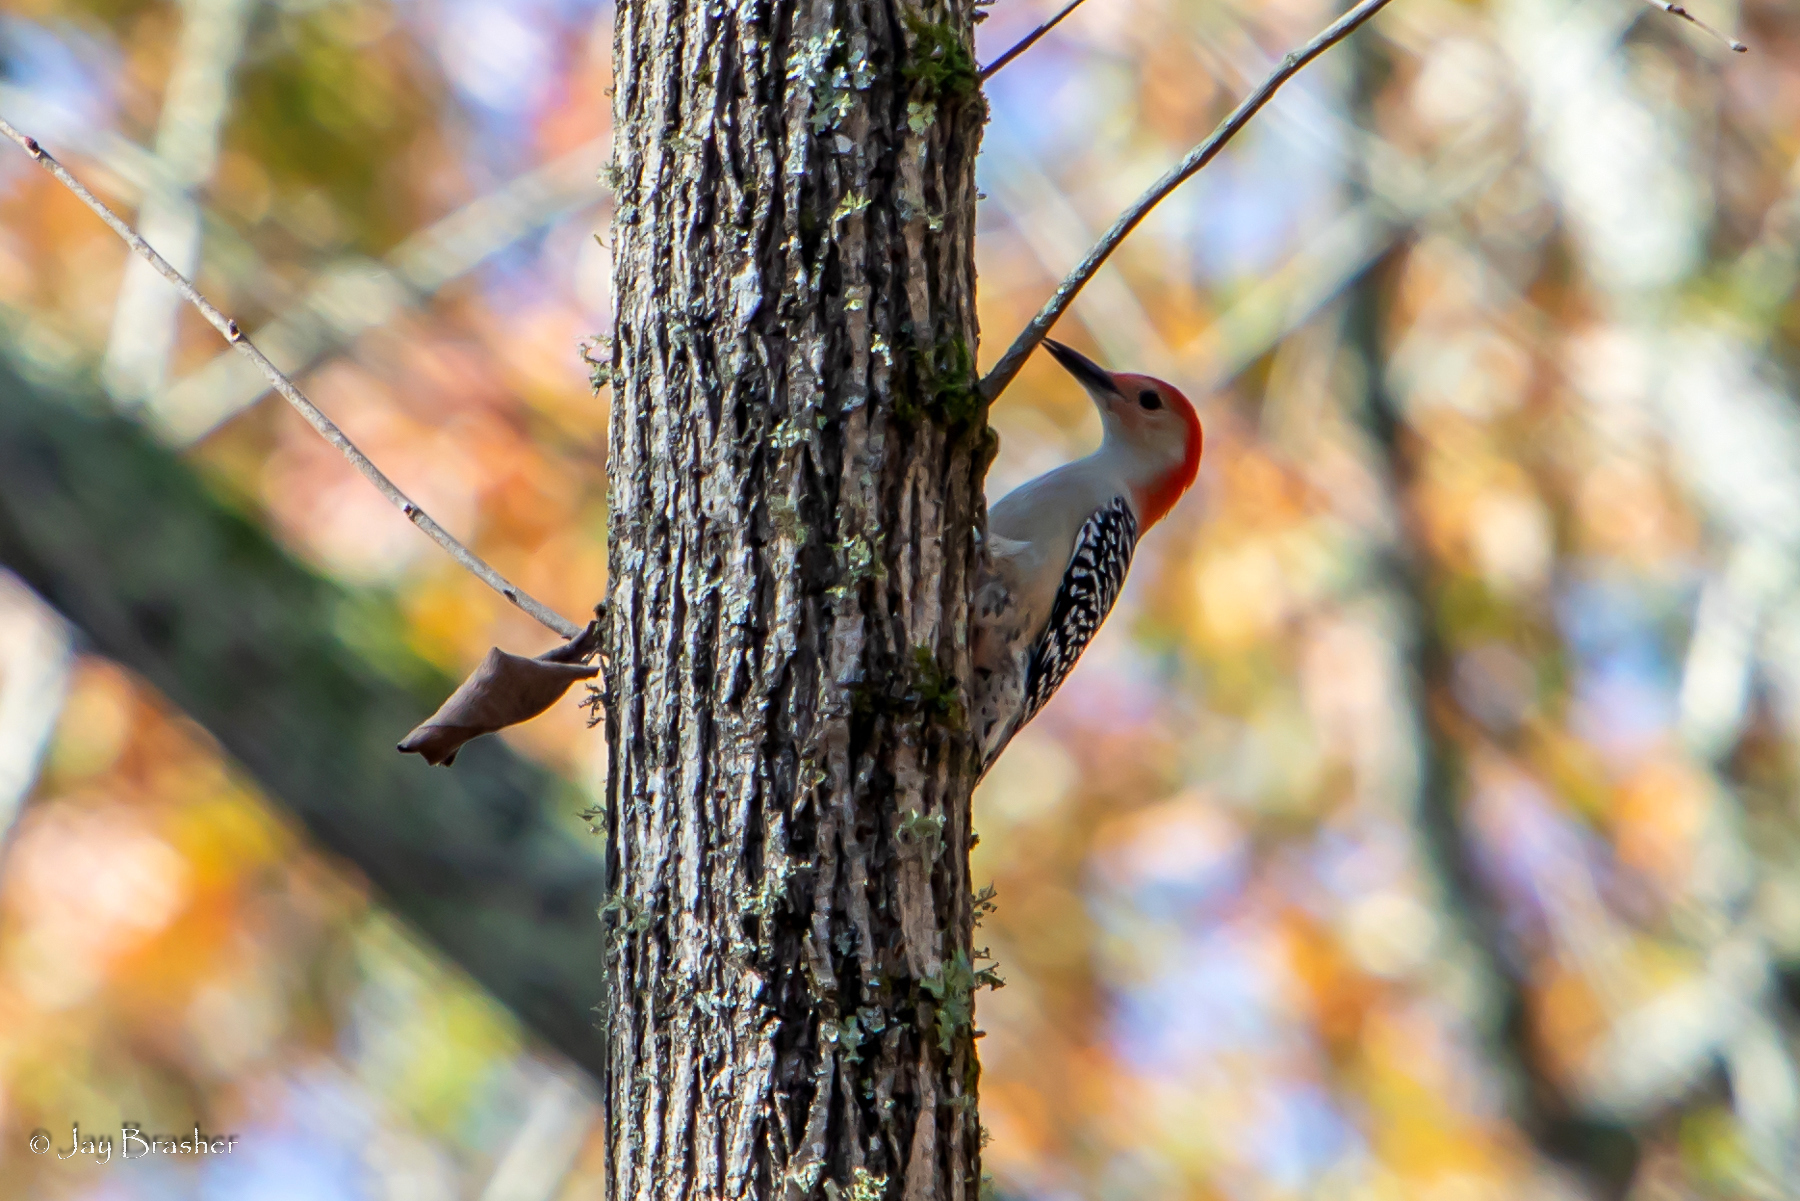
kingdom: Animalia
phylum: Chordata
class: Aves
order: Piciformes
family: Picidae
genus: Melanerpes
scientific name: Melanerpes carolinus
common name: Red-bellied woodpecker
